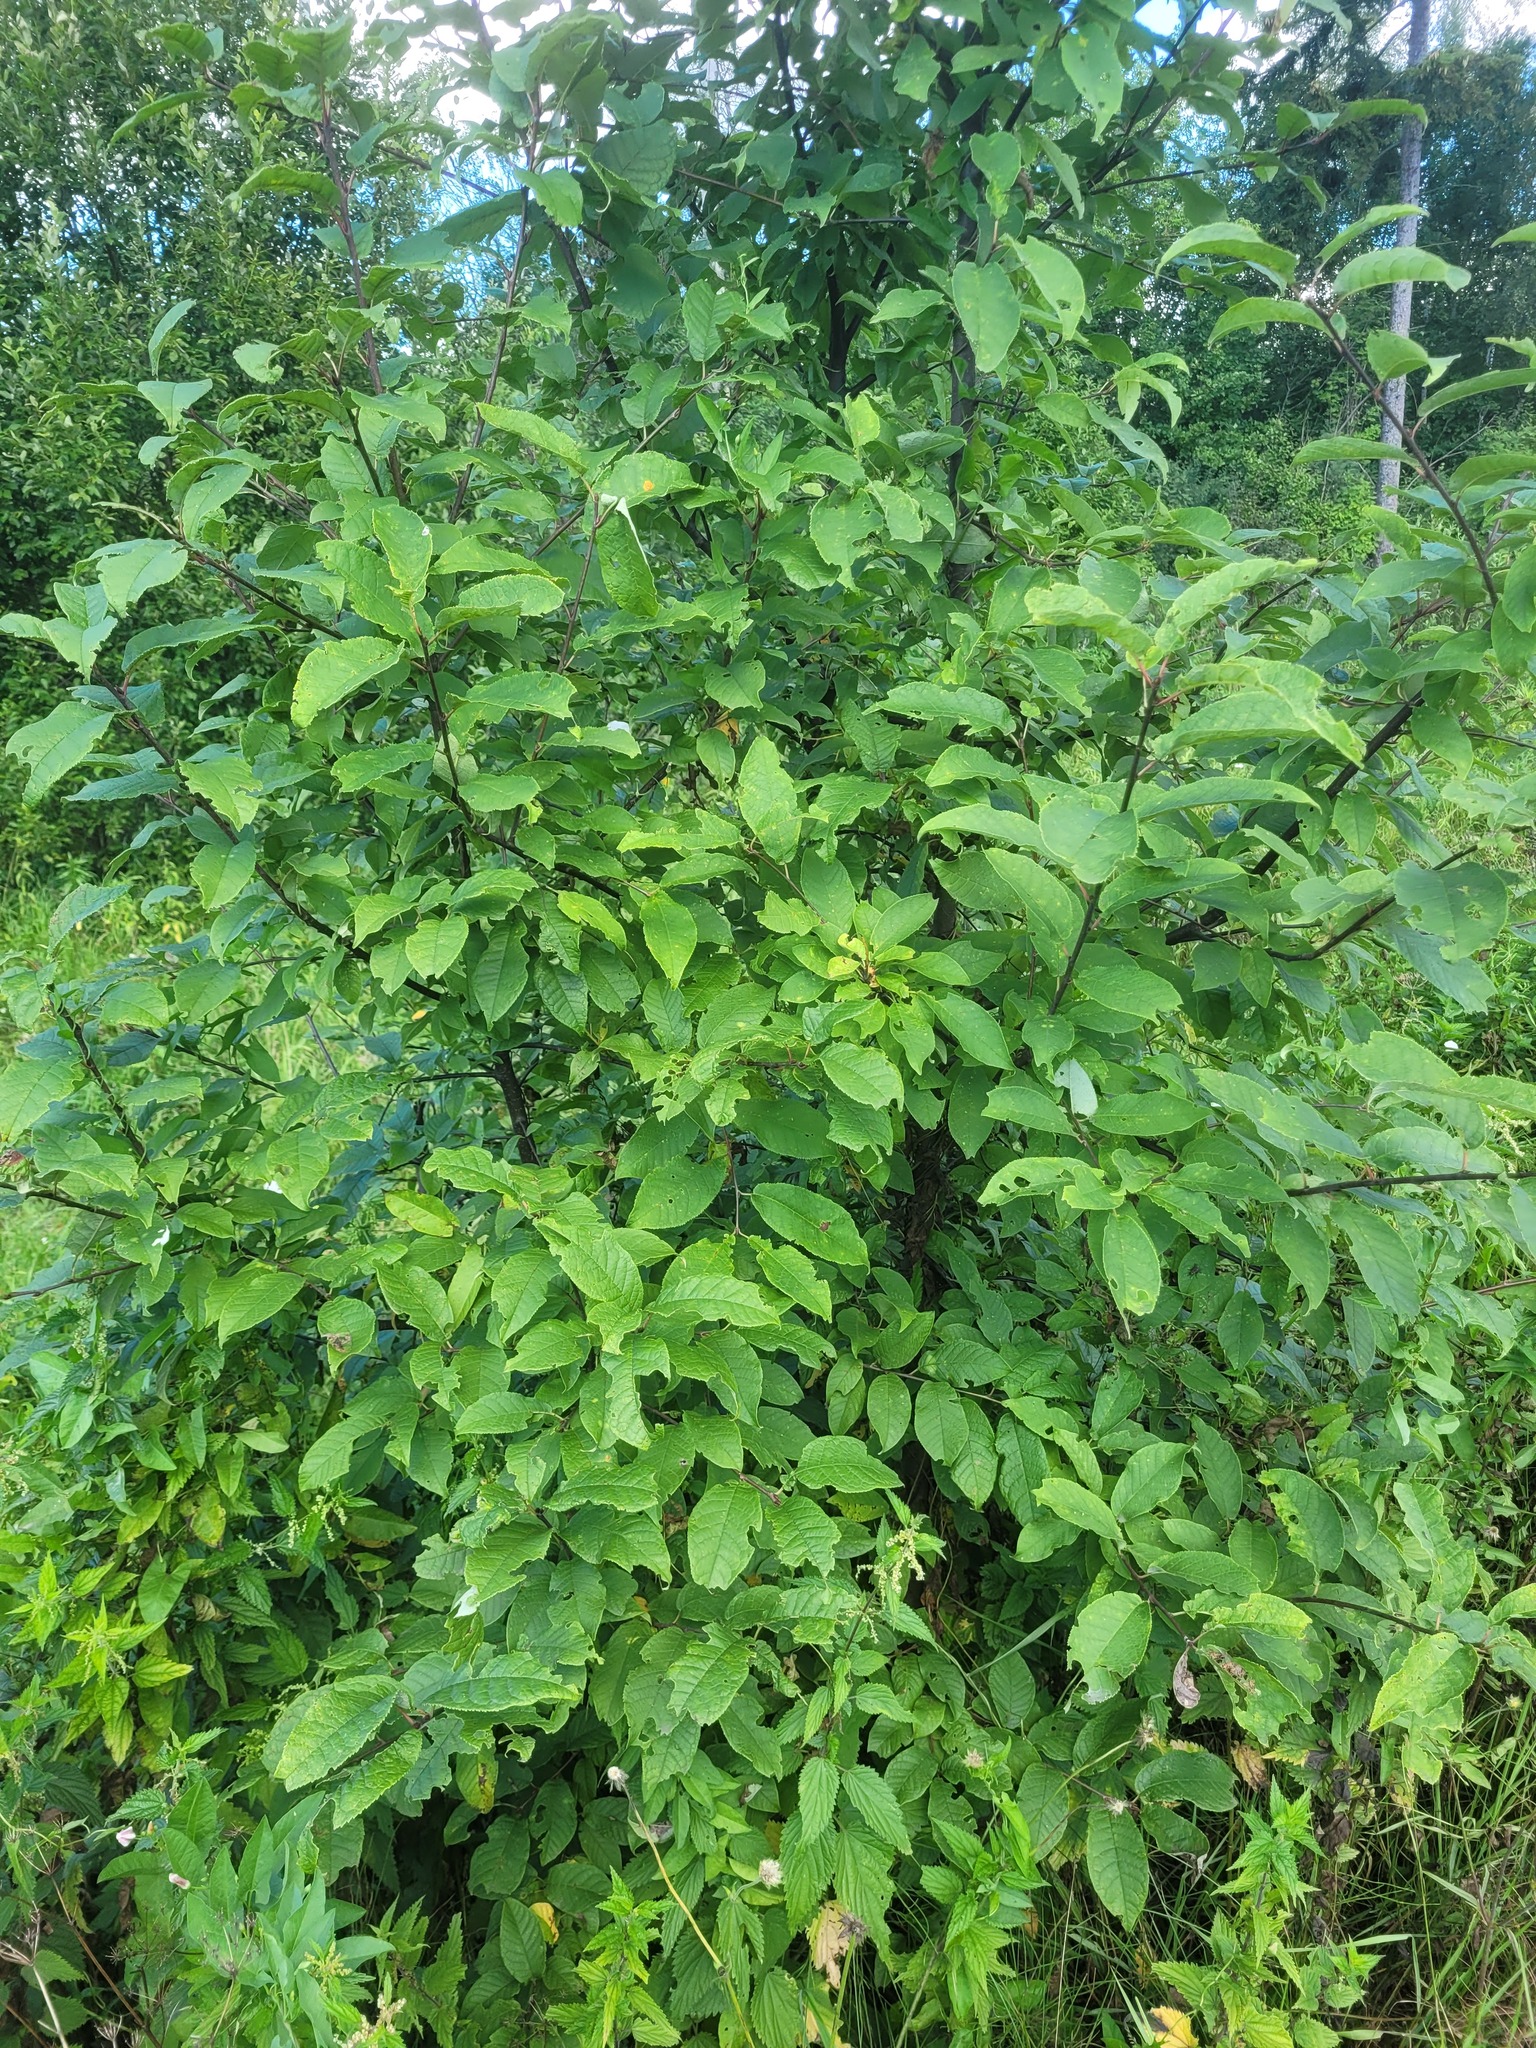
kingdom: Plantae
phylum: Tracheophyta
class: Magnoliopsida
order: Rosales
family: Rosaceae
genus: Prunus
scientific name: Prunus padus
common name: Bird cherry
